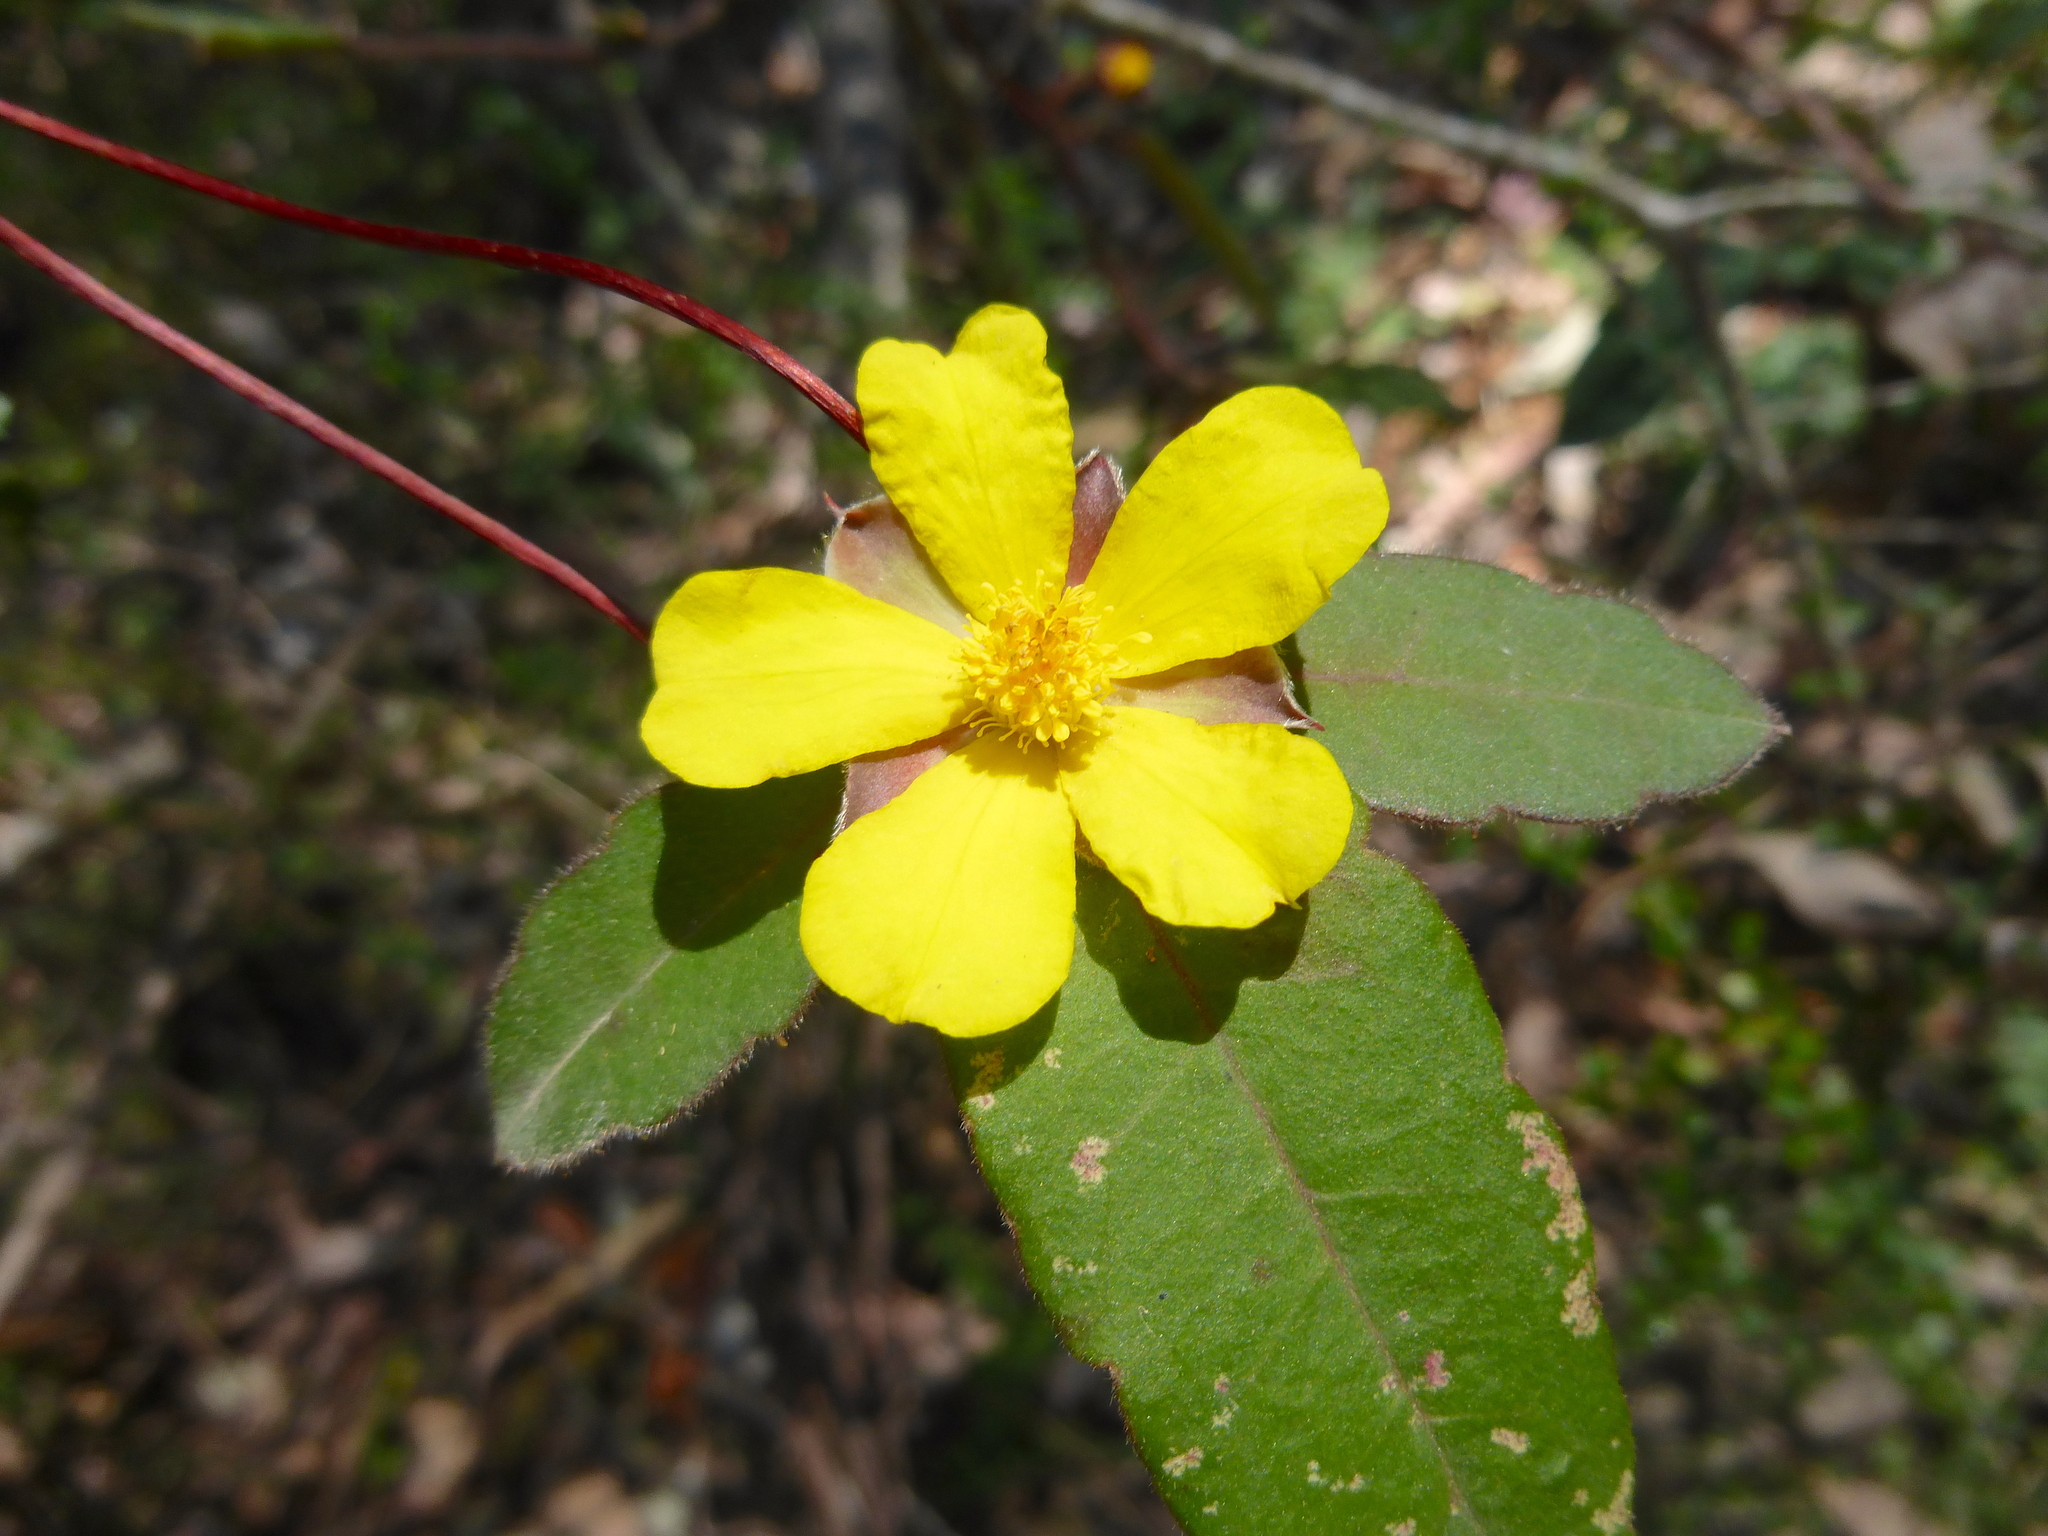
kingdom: Plantae
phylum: Tracheophyta
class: Magnoliopsida
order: Dilleniales
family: Dilleniaceae
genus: Hibbertia
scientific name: Hibbertia dentata
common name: Trailing guinea-flower
